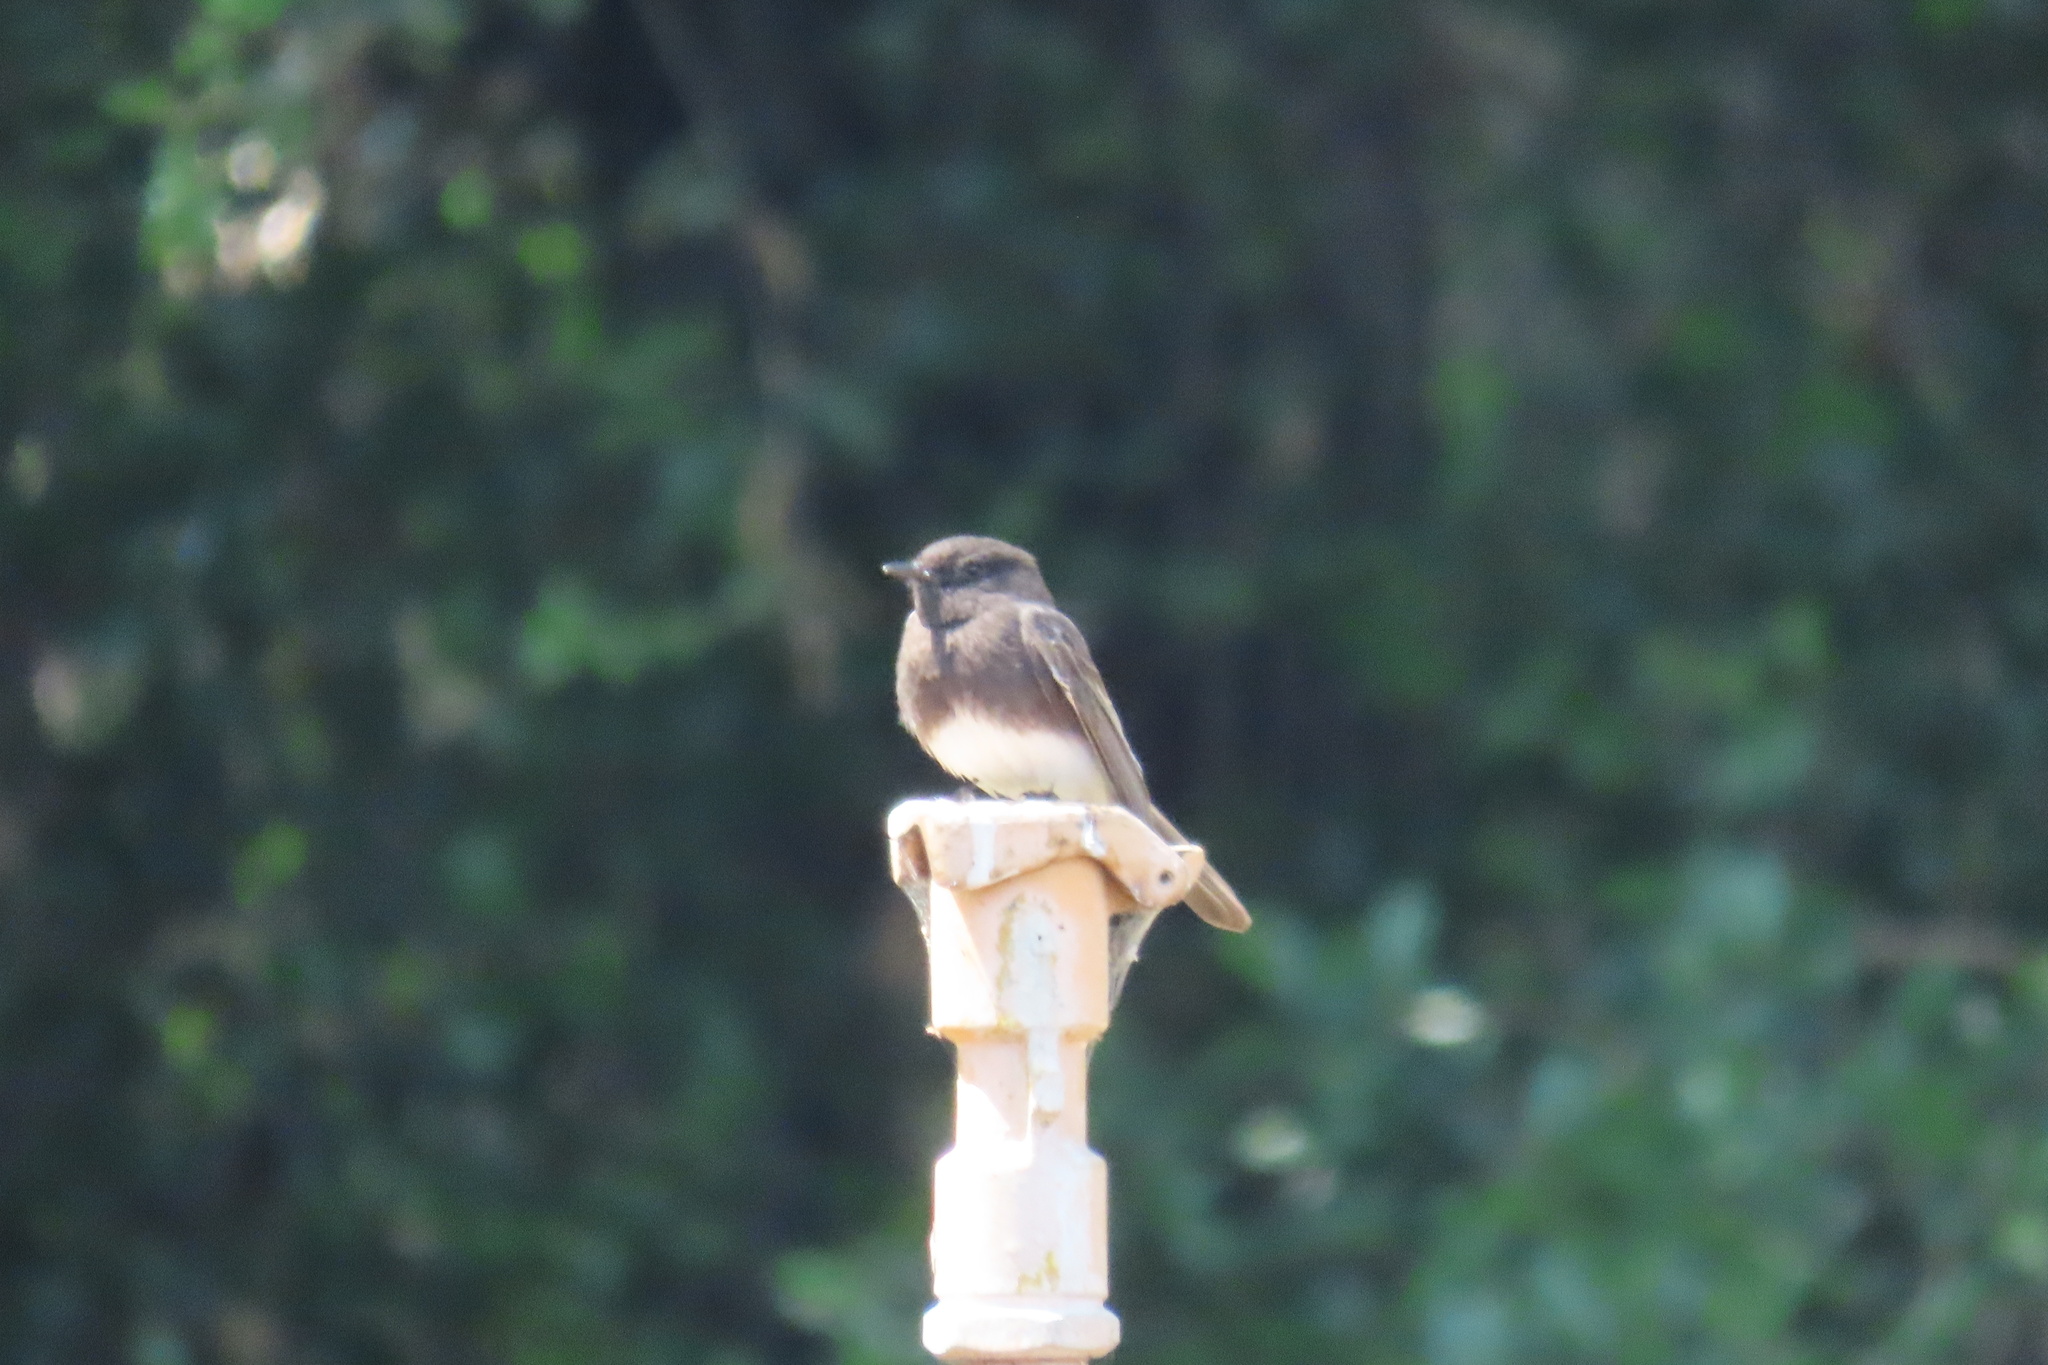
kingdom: Animalia
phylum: Chordata
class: Aves
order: Passeriformes
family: Tyrannidae
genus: Sayornis
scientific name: Sayornis nigricans
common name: Black phoebe
